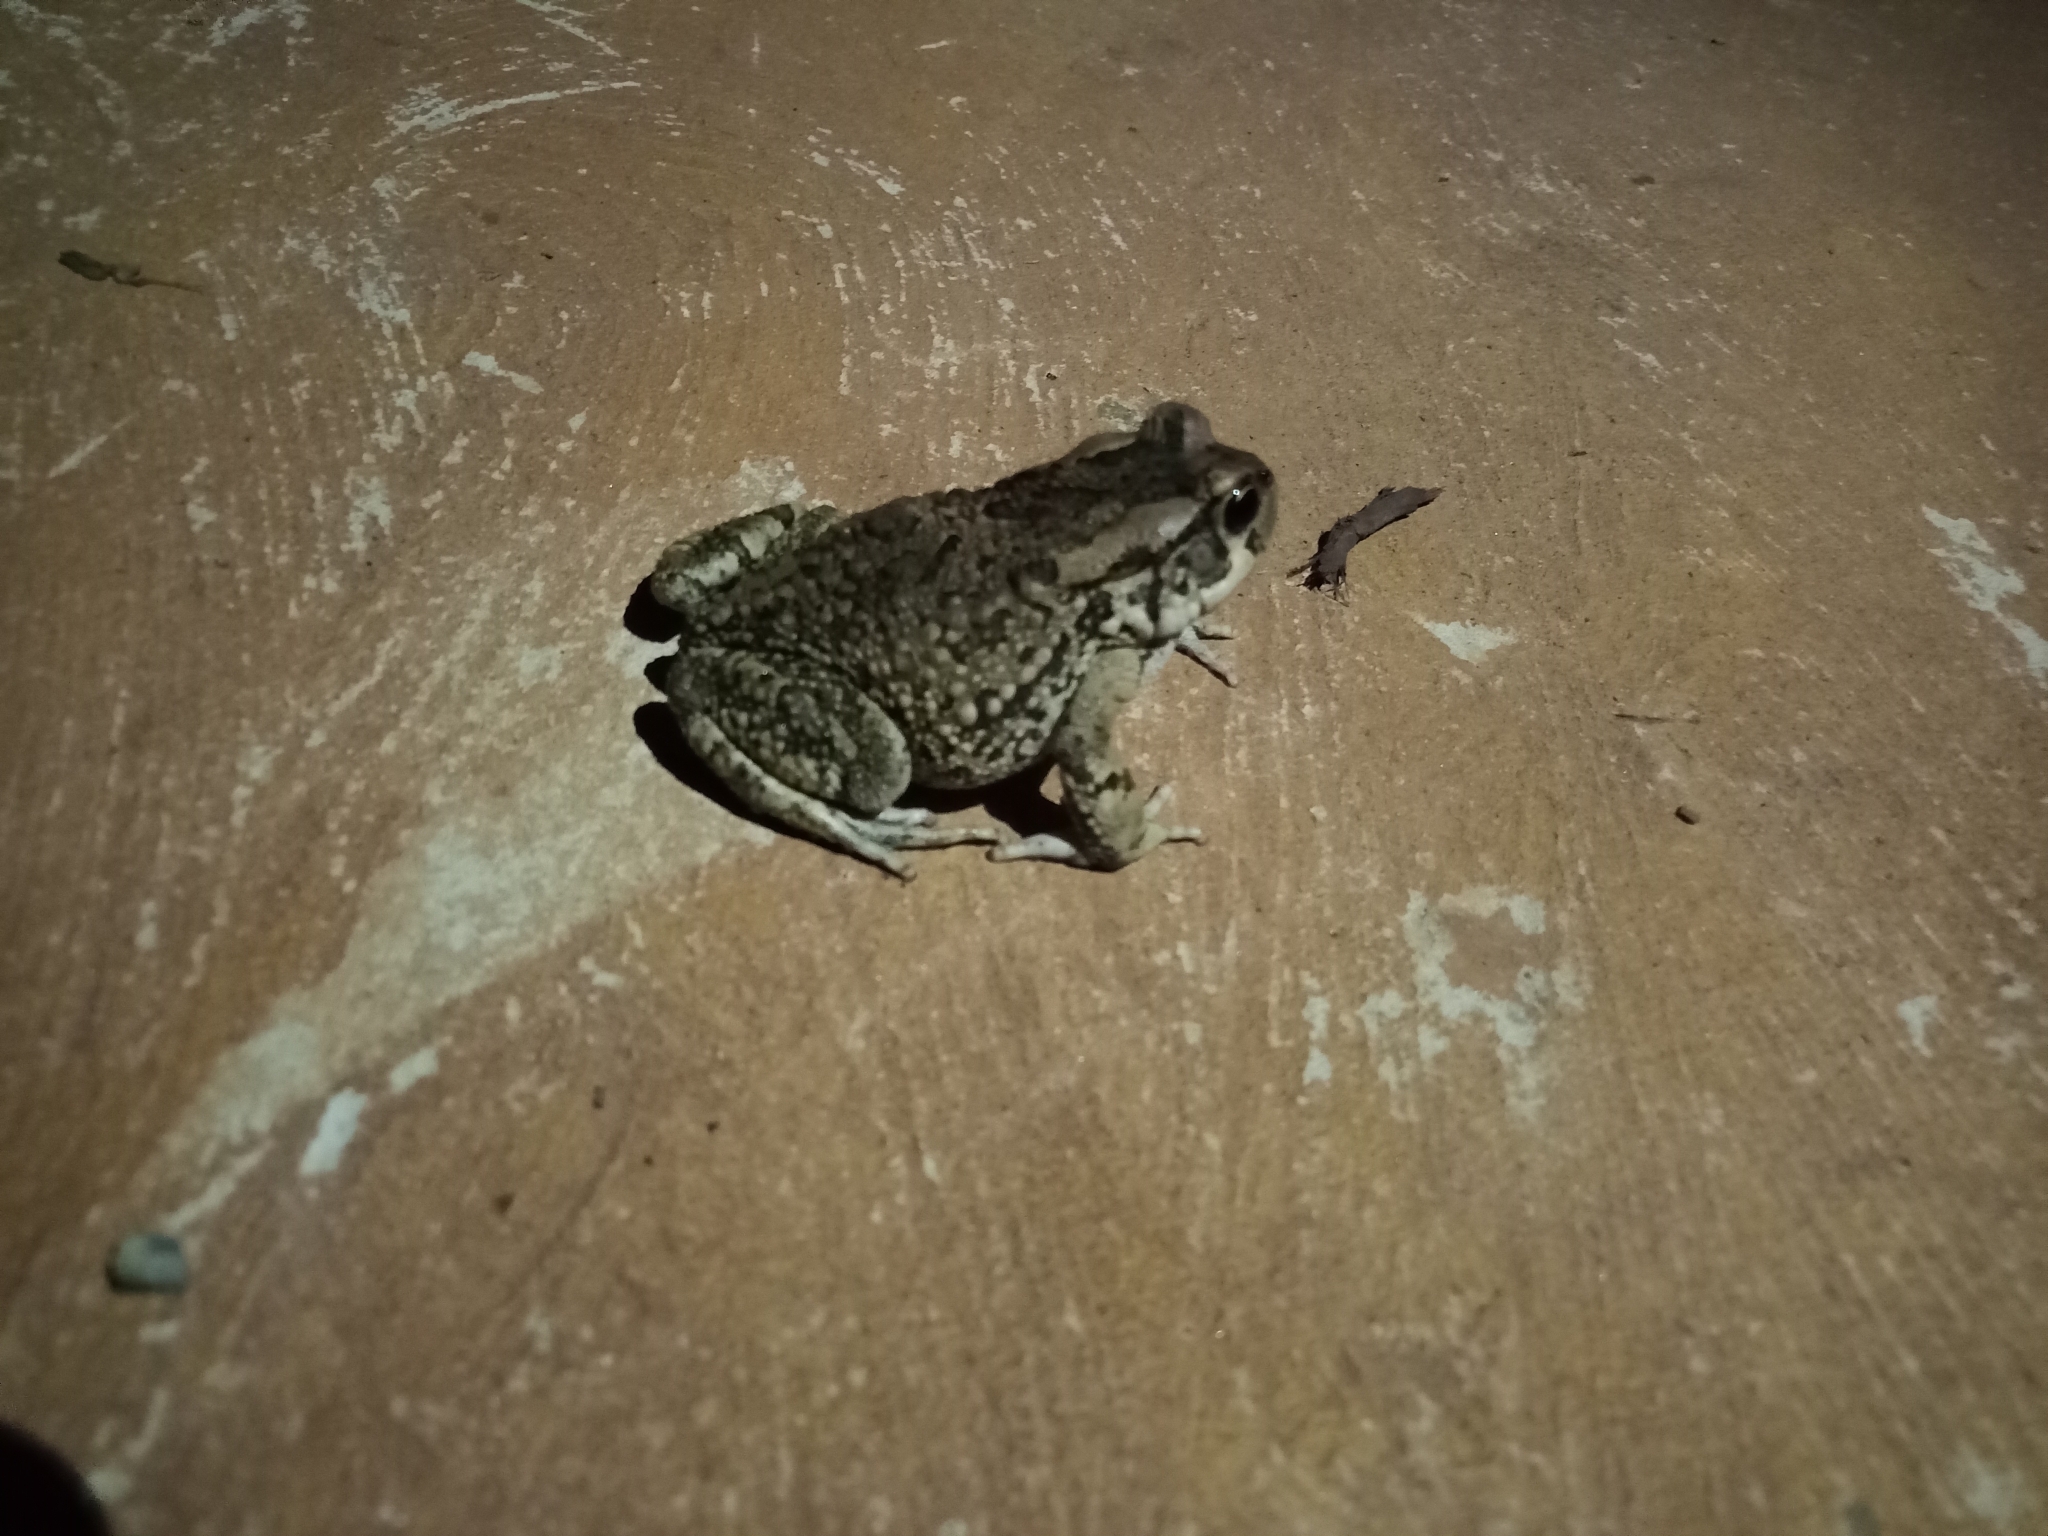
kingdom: Animalia
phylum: Chordata
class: Amphibia
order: Anura
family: Bufonidae
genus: Sclerophrys
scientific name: Sclerophrys capensis
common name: Ranger’s toad
